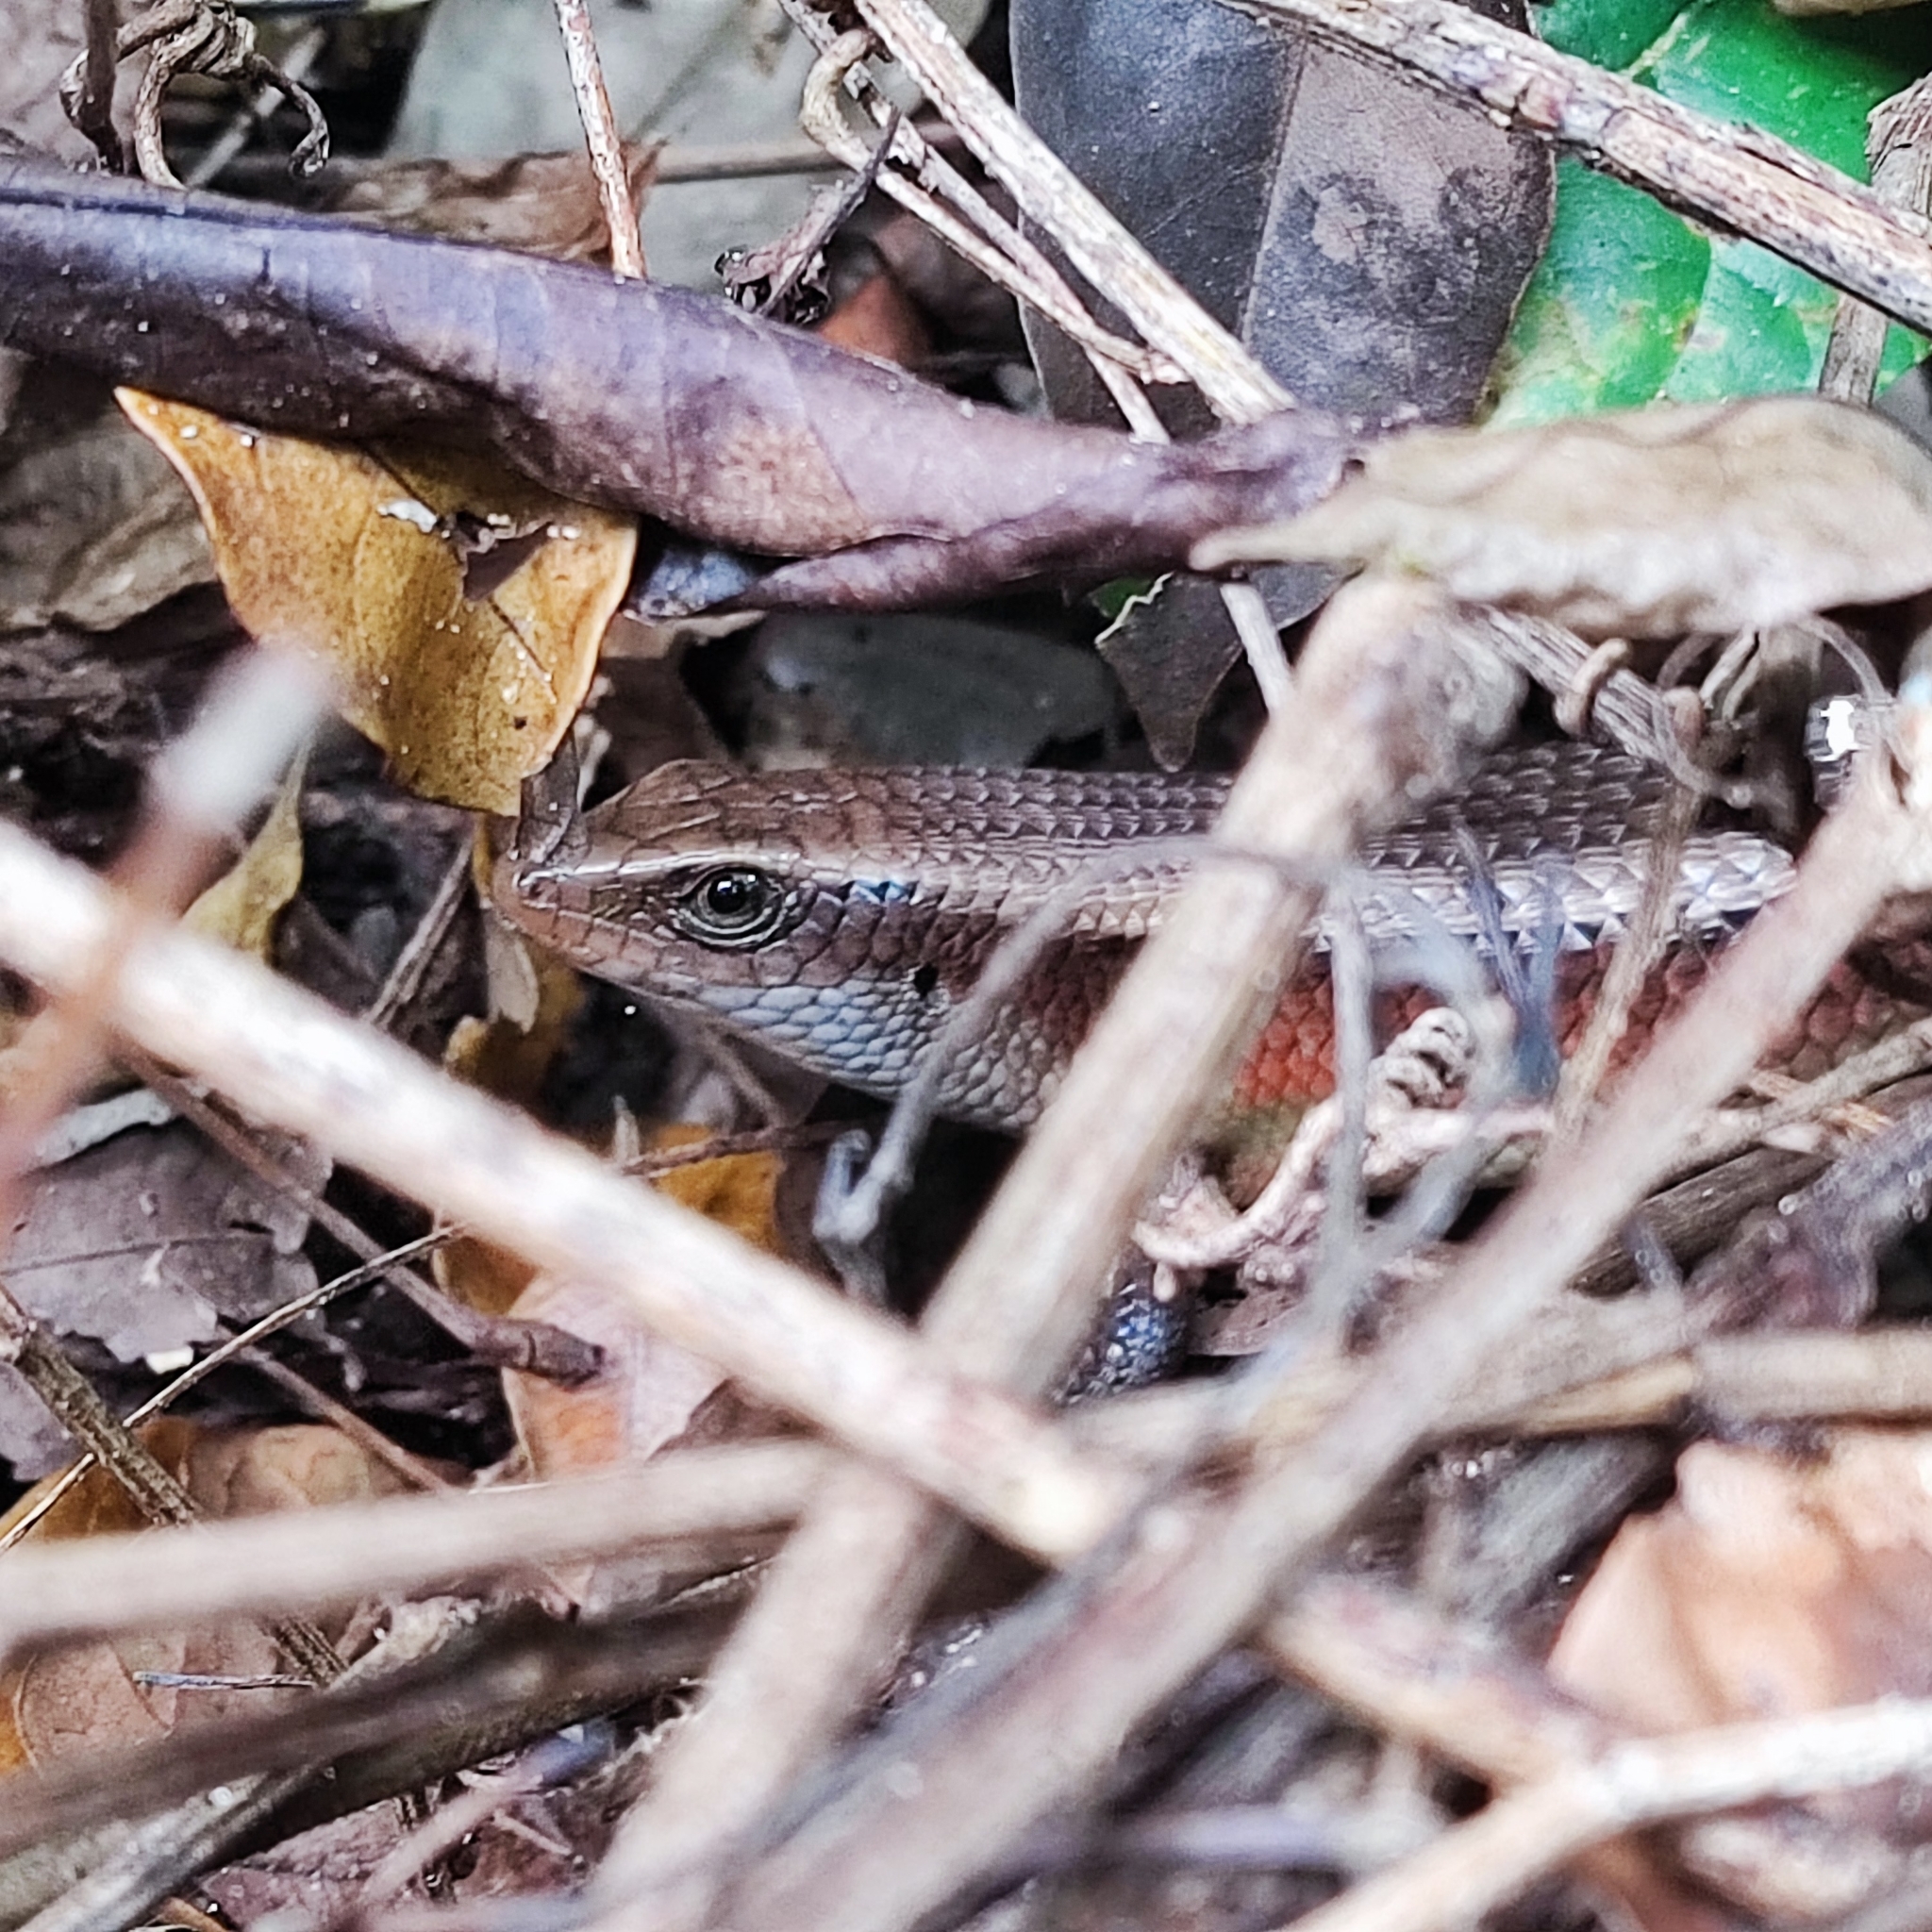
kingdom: Animalia
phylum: Chordata
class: Squamata
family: Scincidae
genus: Eutropis
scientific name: Eutropis multifasciata
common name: Common mabuya
